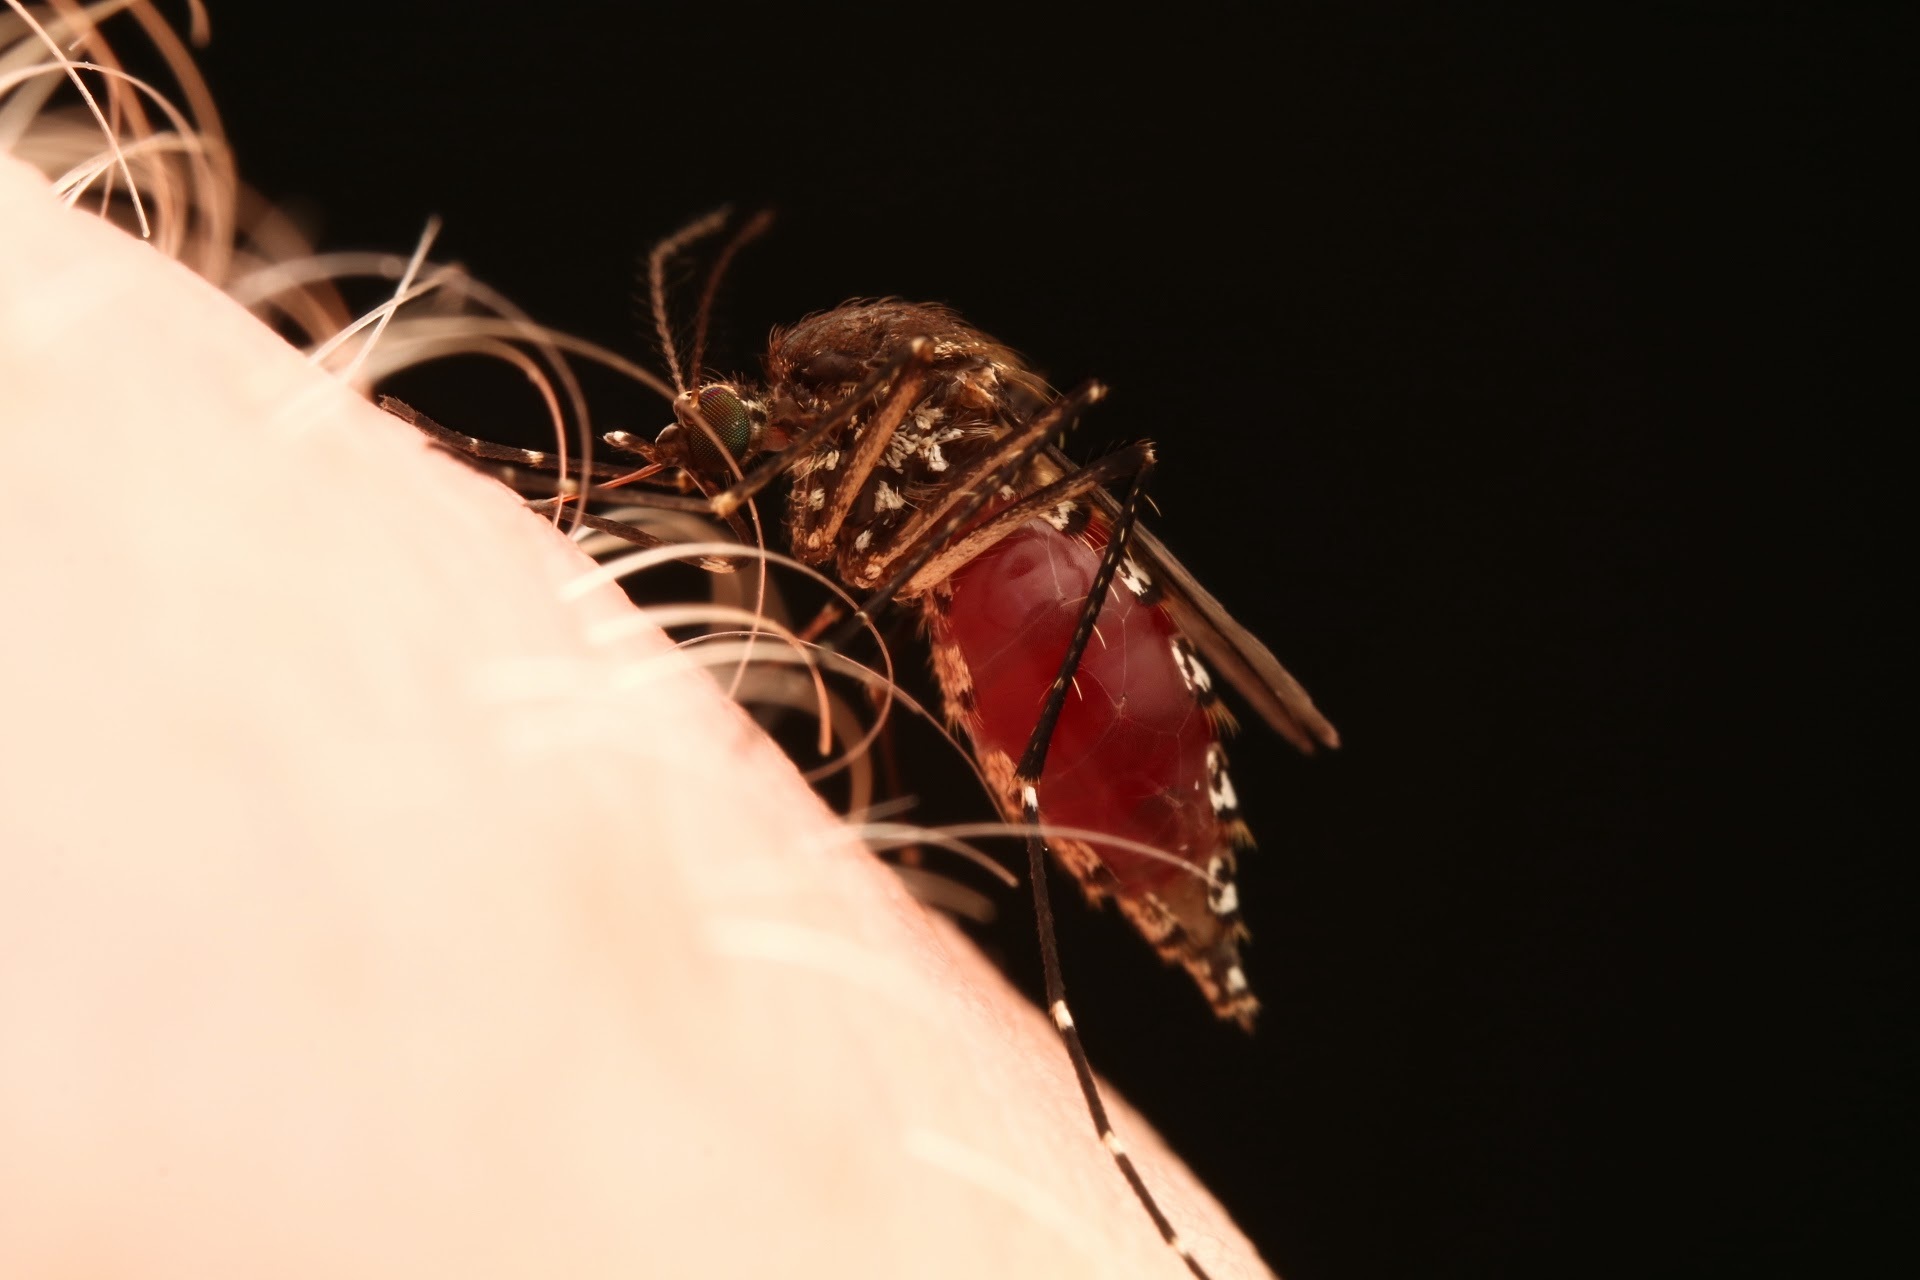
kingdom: Animalia
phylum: Arthropoda
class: Insecta
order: Diptera
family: Culicidae
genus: Aedes
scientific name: Aedes taeniorhynchus
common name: Black salt marsh mosquito
